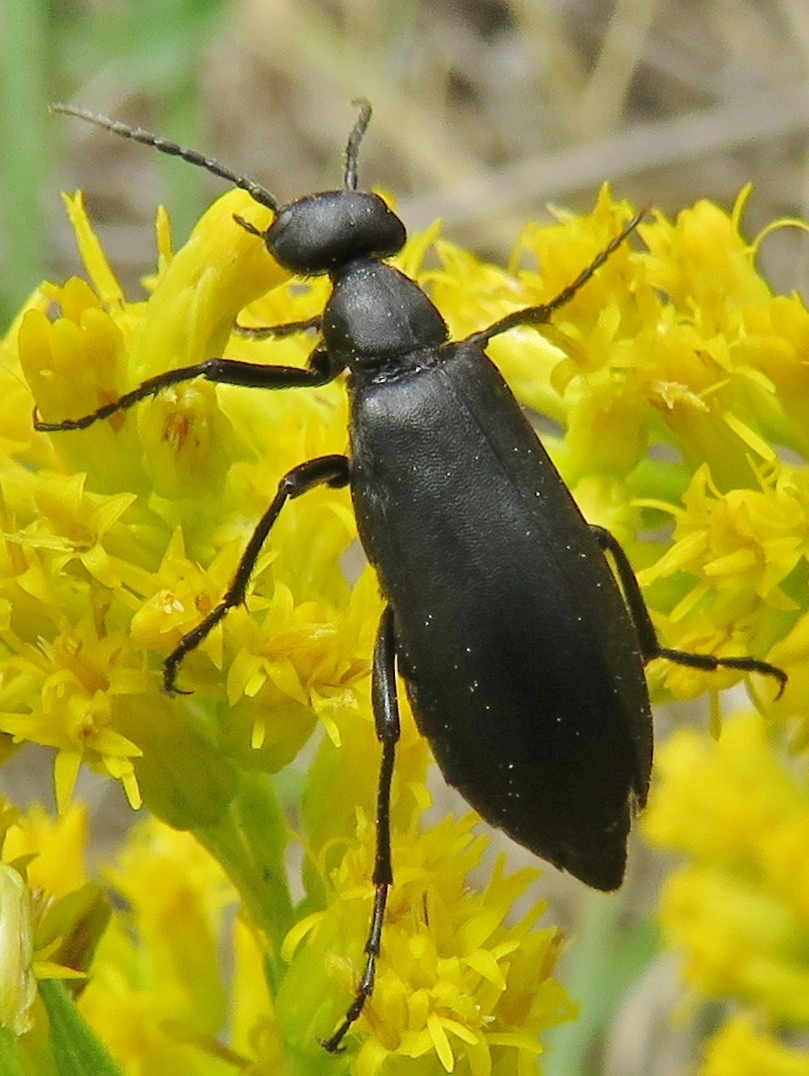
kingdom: Animalia
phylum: Arthropoda
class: Insecta
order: Coleoptera
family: Meloidae
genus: Epicauta
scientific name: Epicauta pensylvanica
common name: Black blister beetle
